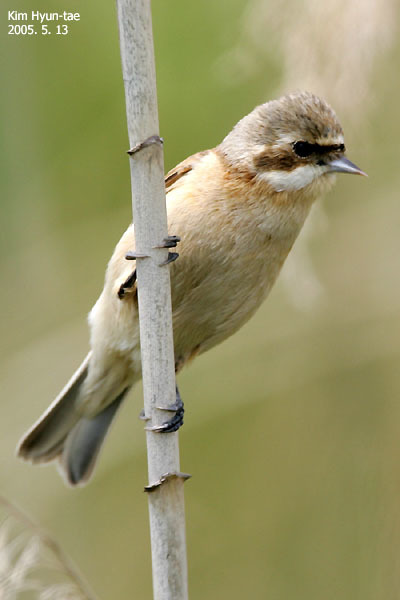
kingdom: Animalia
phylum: Chordata
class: Aves
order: Passeriformes
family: Remizidae
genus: Remiz
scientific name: Remiz consobrinus
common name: Chinese penduline tit
